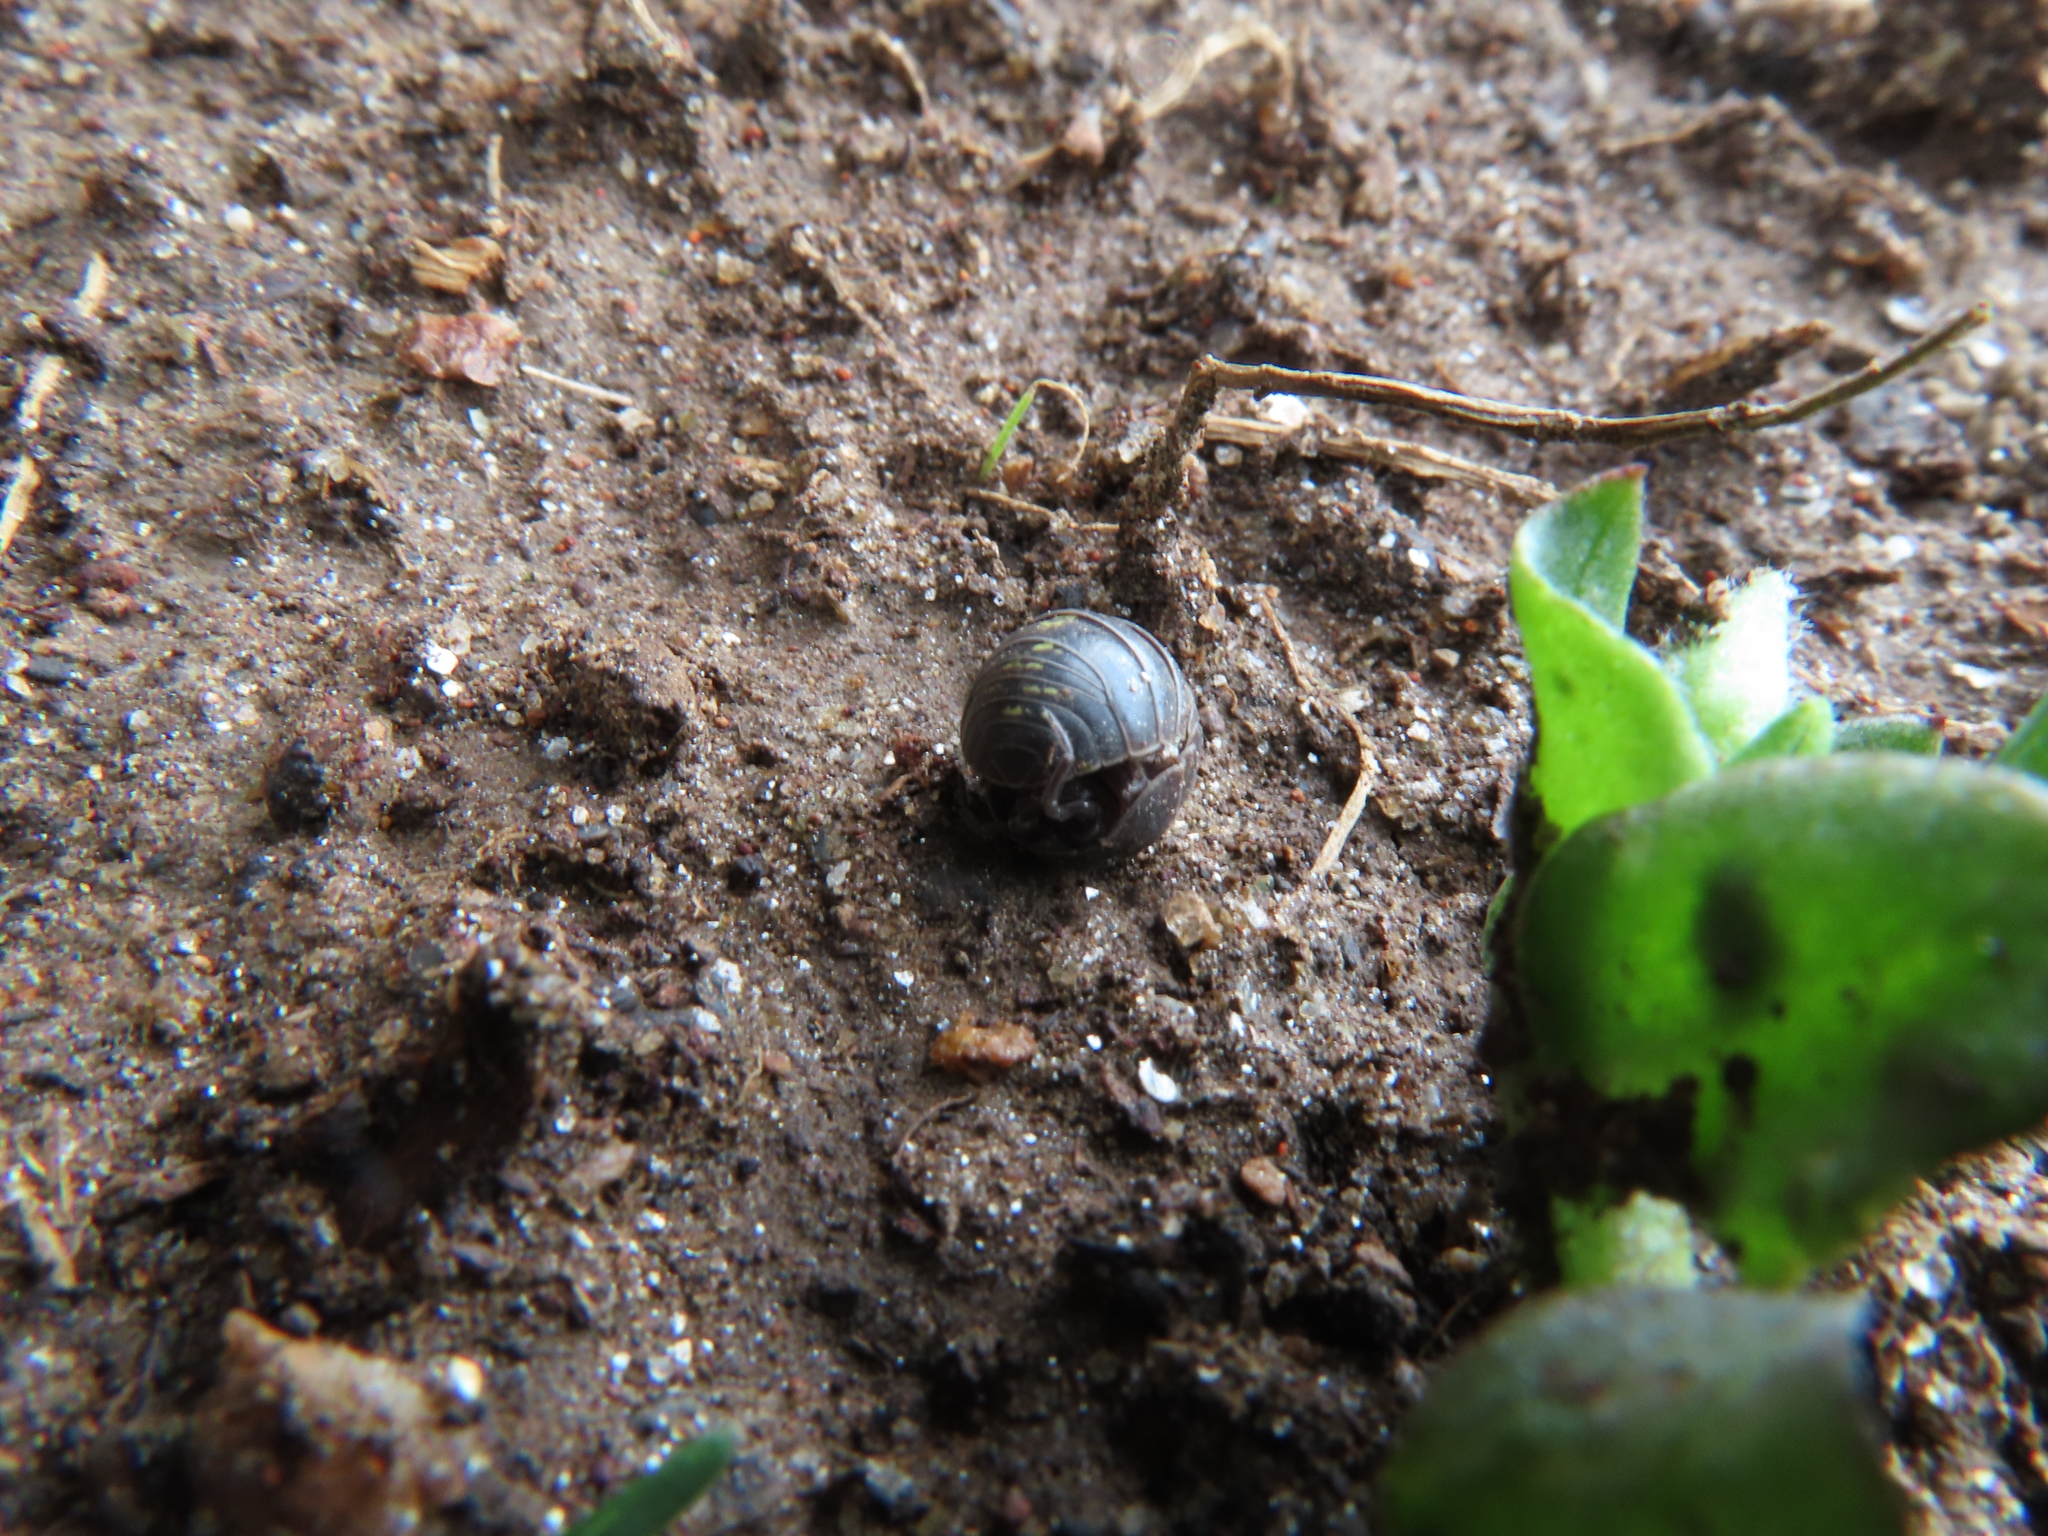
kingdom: Animalia
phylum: Arthropoda
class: Malacostraca
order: Isopoda
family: Armadillidiidae
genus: Armadillidium
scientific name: Armadillidium vulgare
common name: Common pill woodlouse
